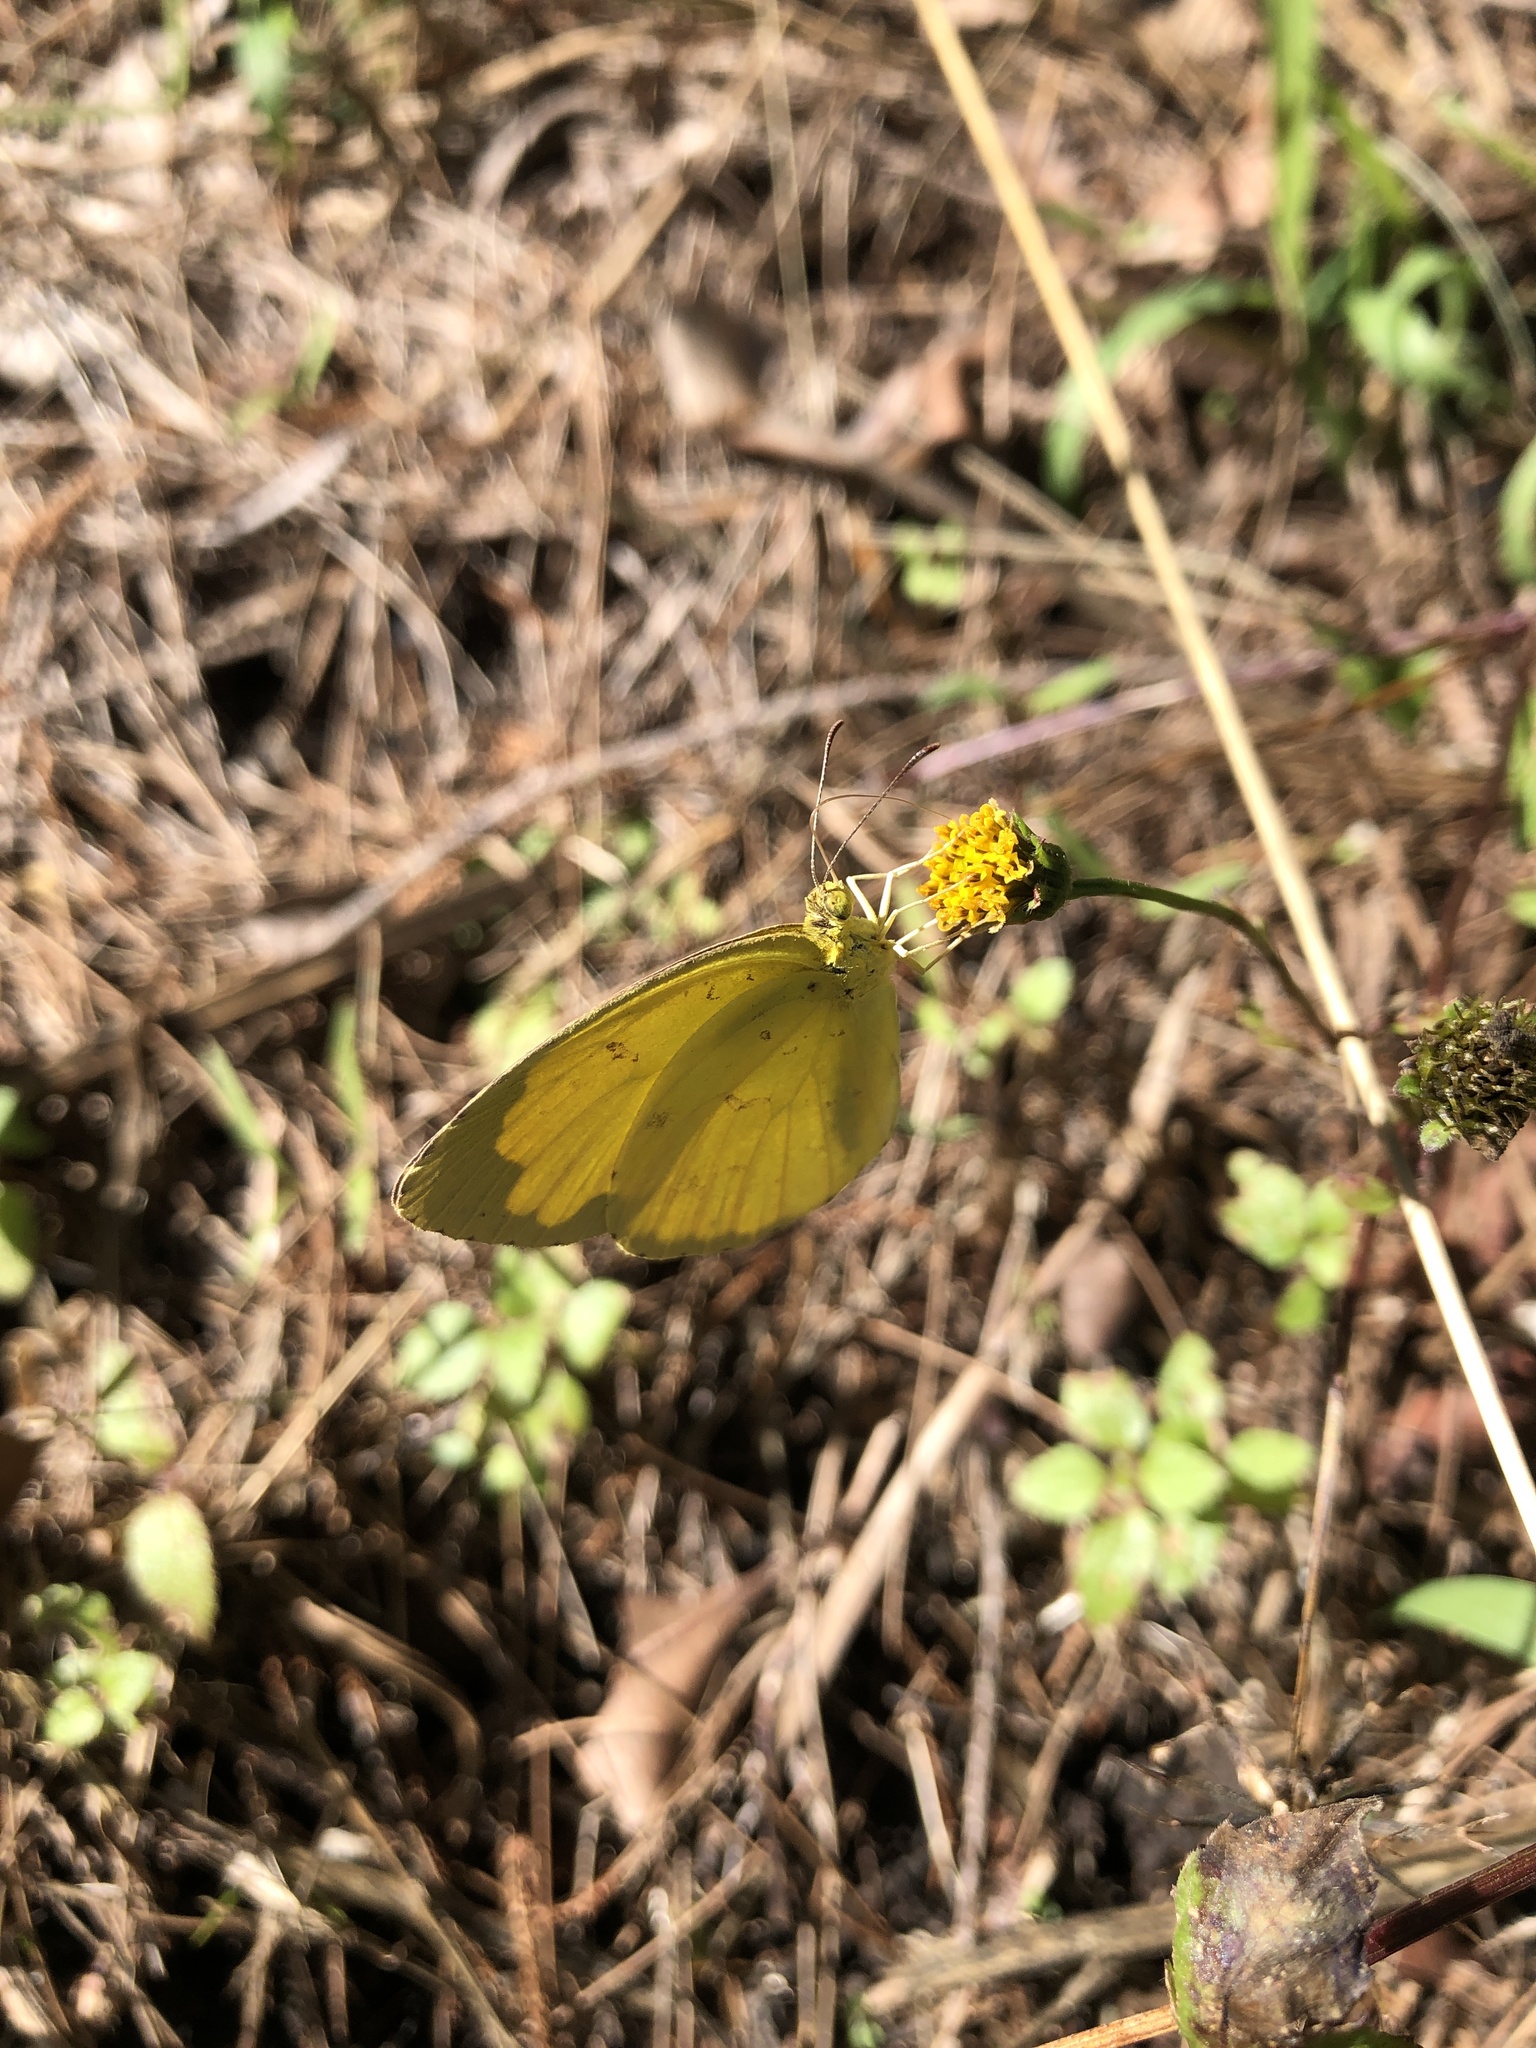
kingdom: Animalia
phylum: Arthropoda
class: Insecta
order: Lepidoptera
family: Pieridae
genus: Eurema
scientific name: Eurema hecabe
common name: Pale grass yellow
